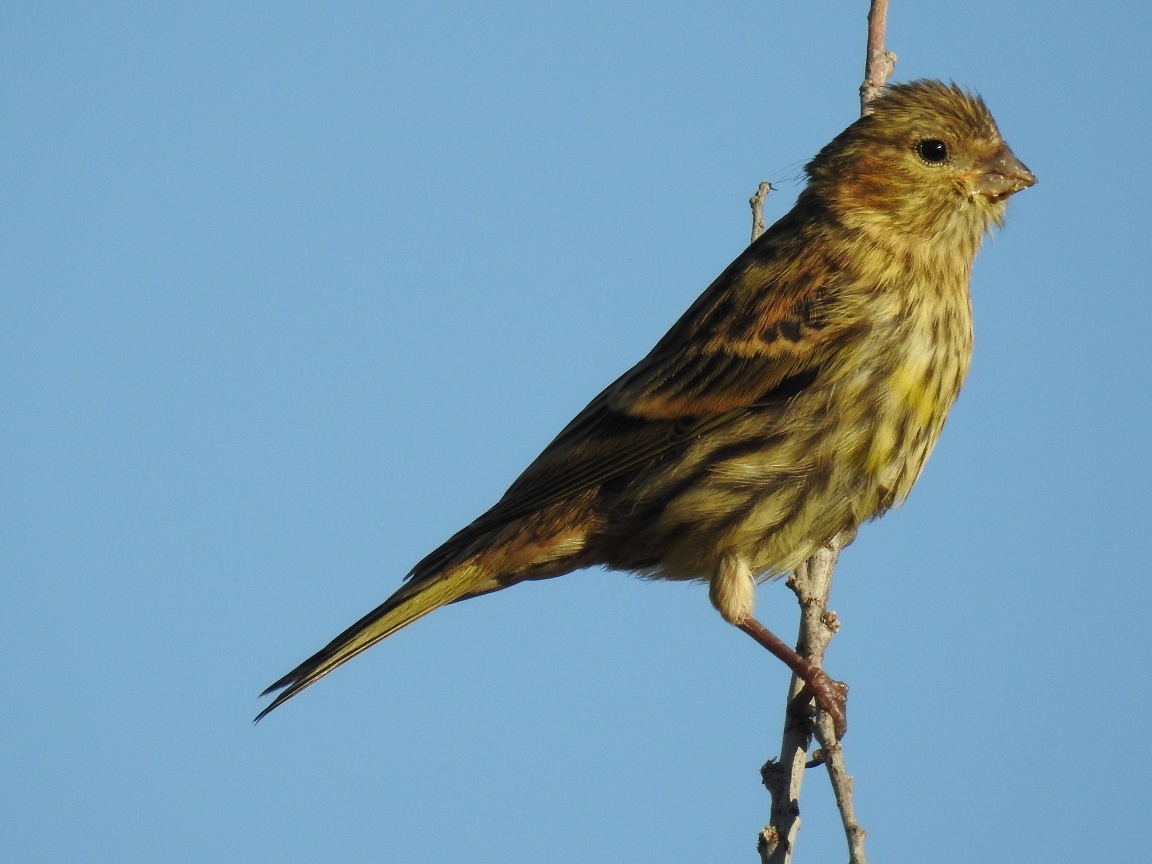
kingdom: Animalia
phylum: Chordata
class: Aves
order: Passeriformes
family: Fringillidae
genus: Serinus
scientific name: Serinus serinus
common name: European serin
